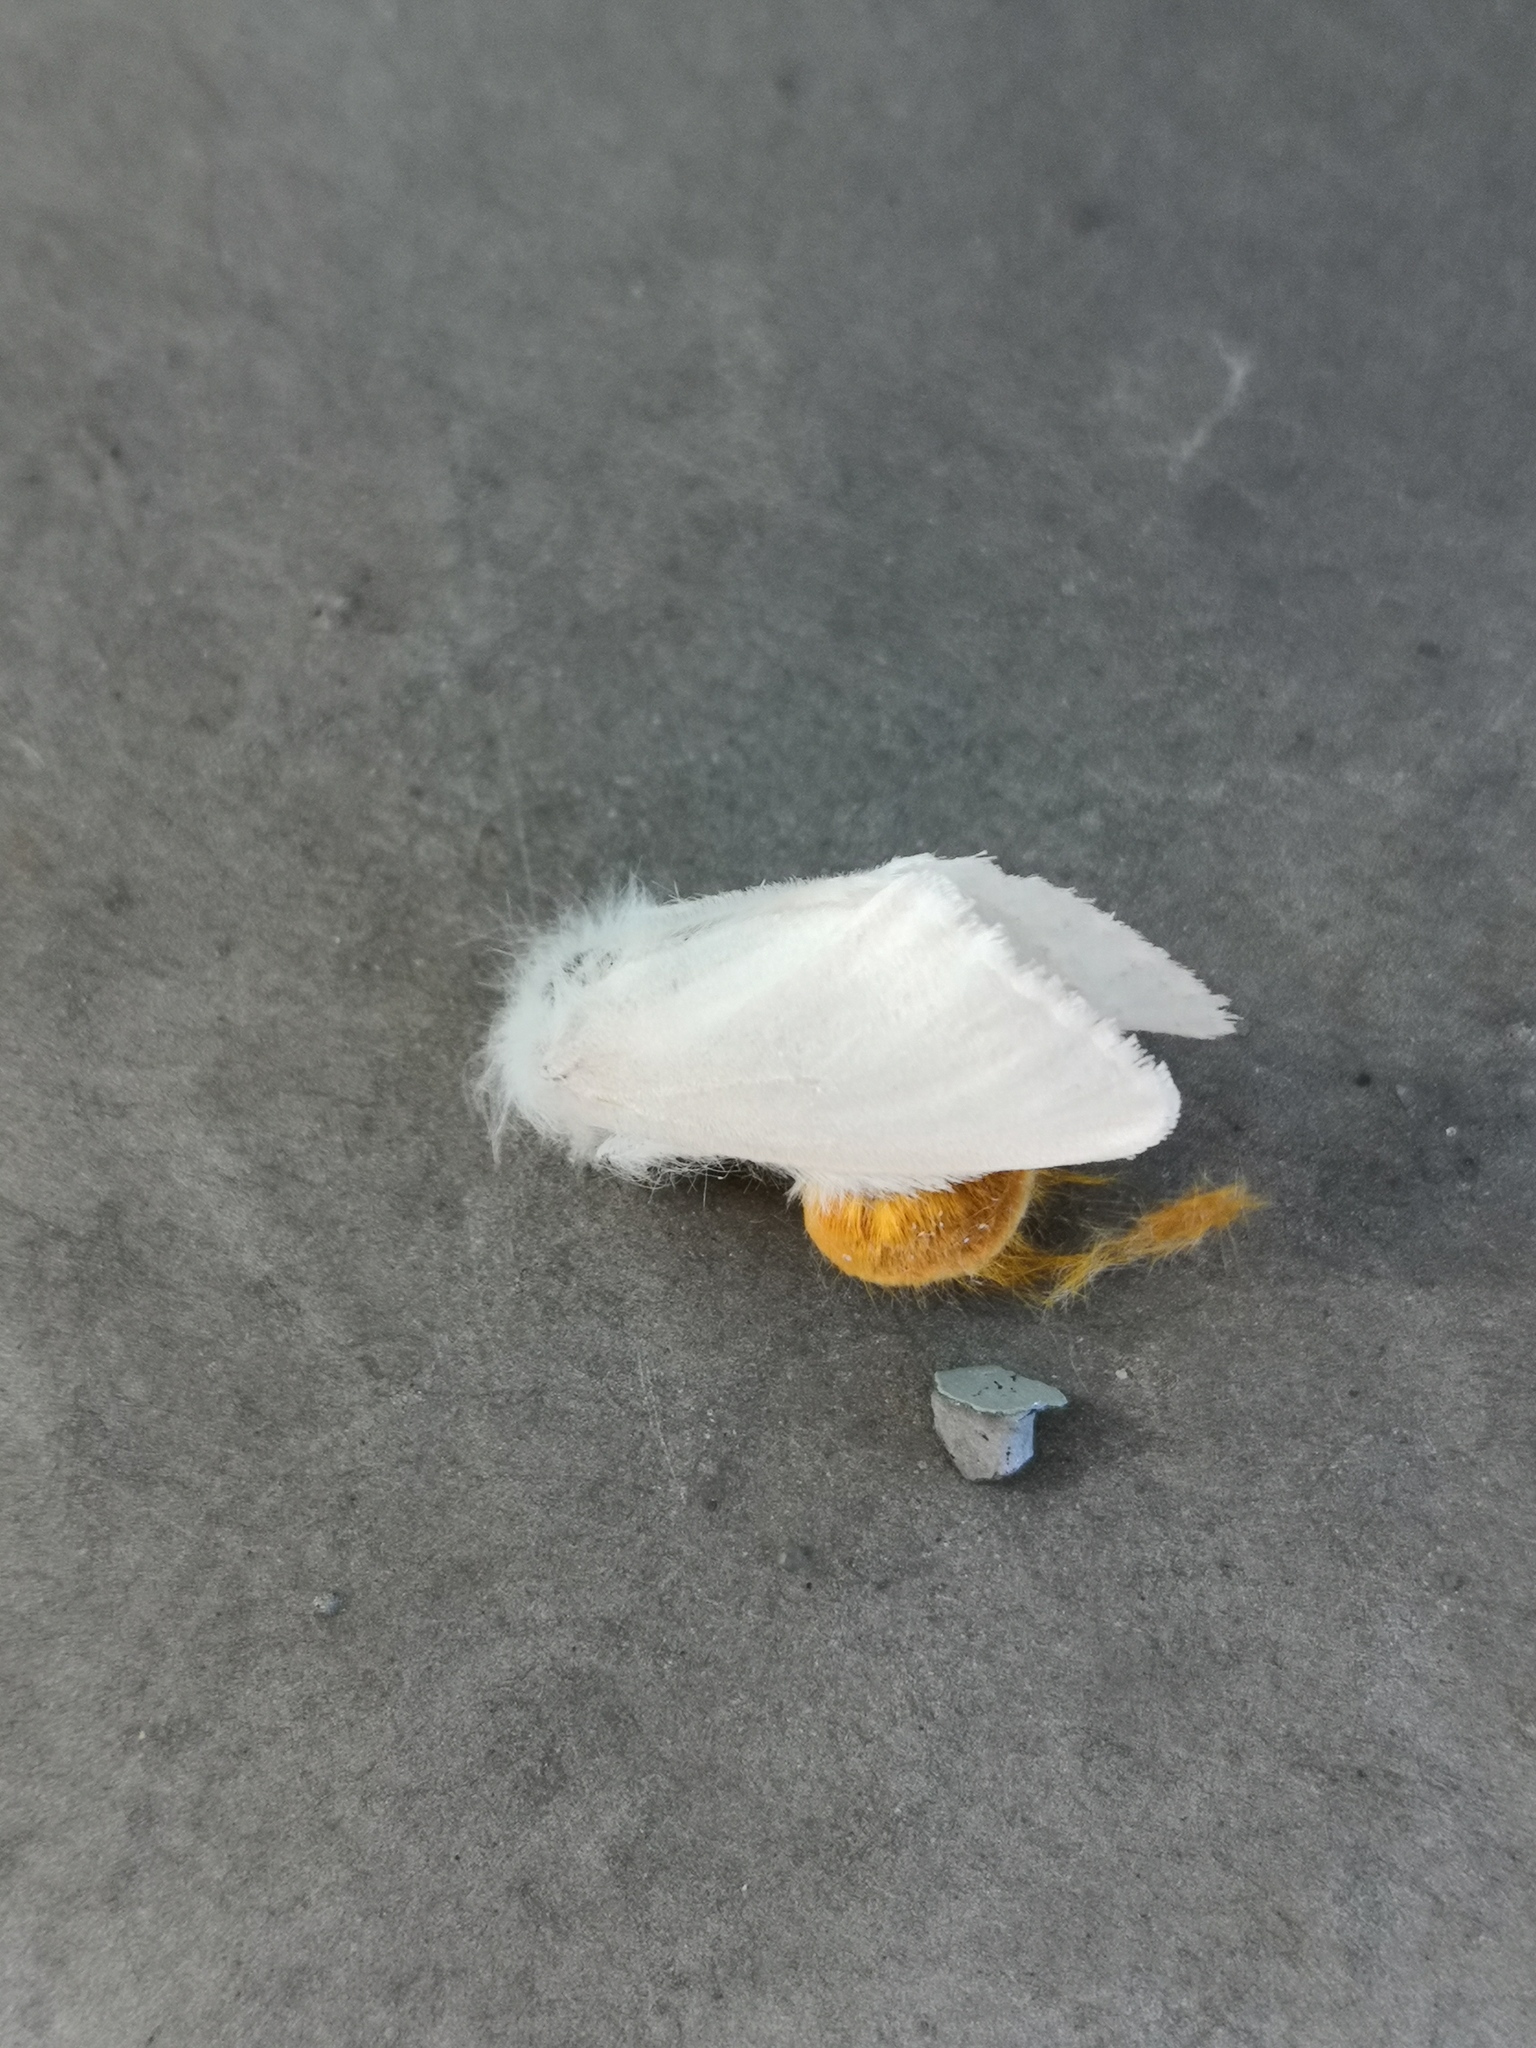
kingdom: Animalia
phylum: Arthropoda
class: Insecta
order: Lepidoptera
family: Erebidae
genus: Euproctis
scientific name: Euproctis chrysorrhoea
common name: Brown-tail
